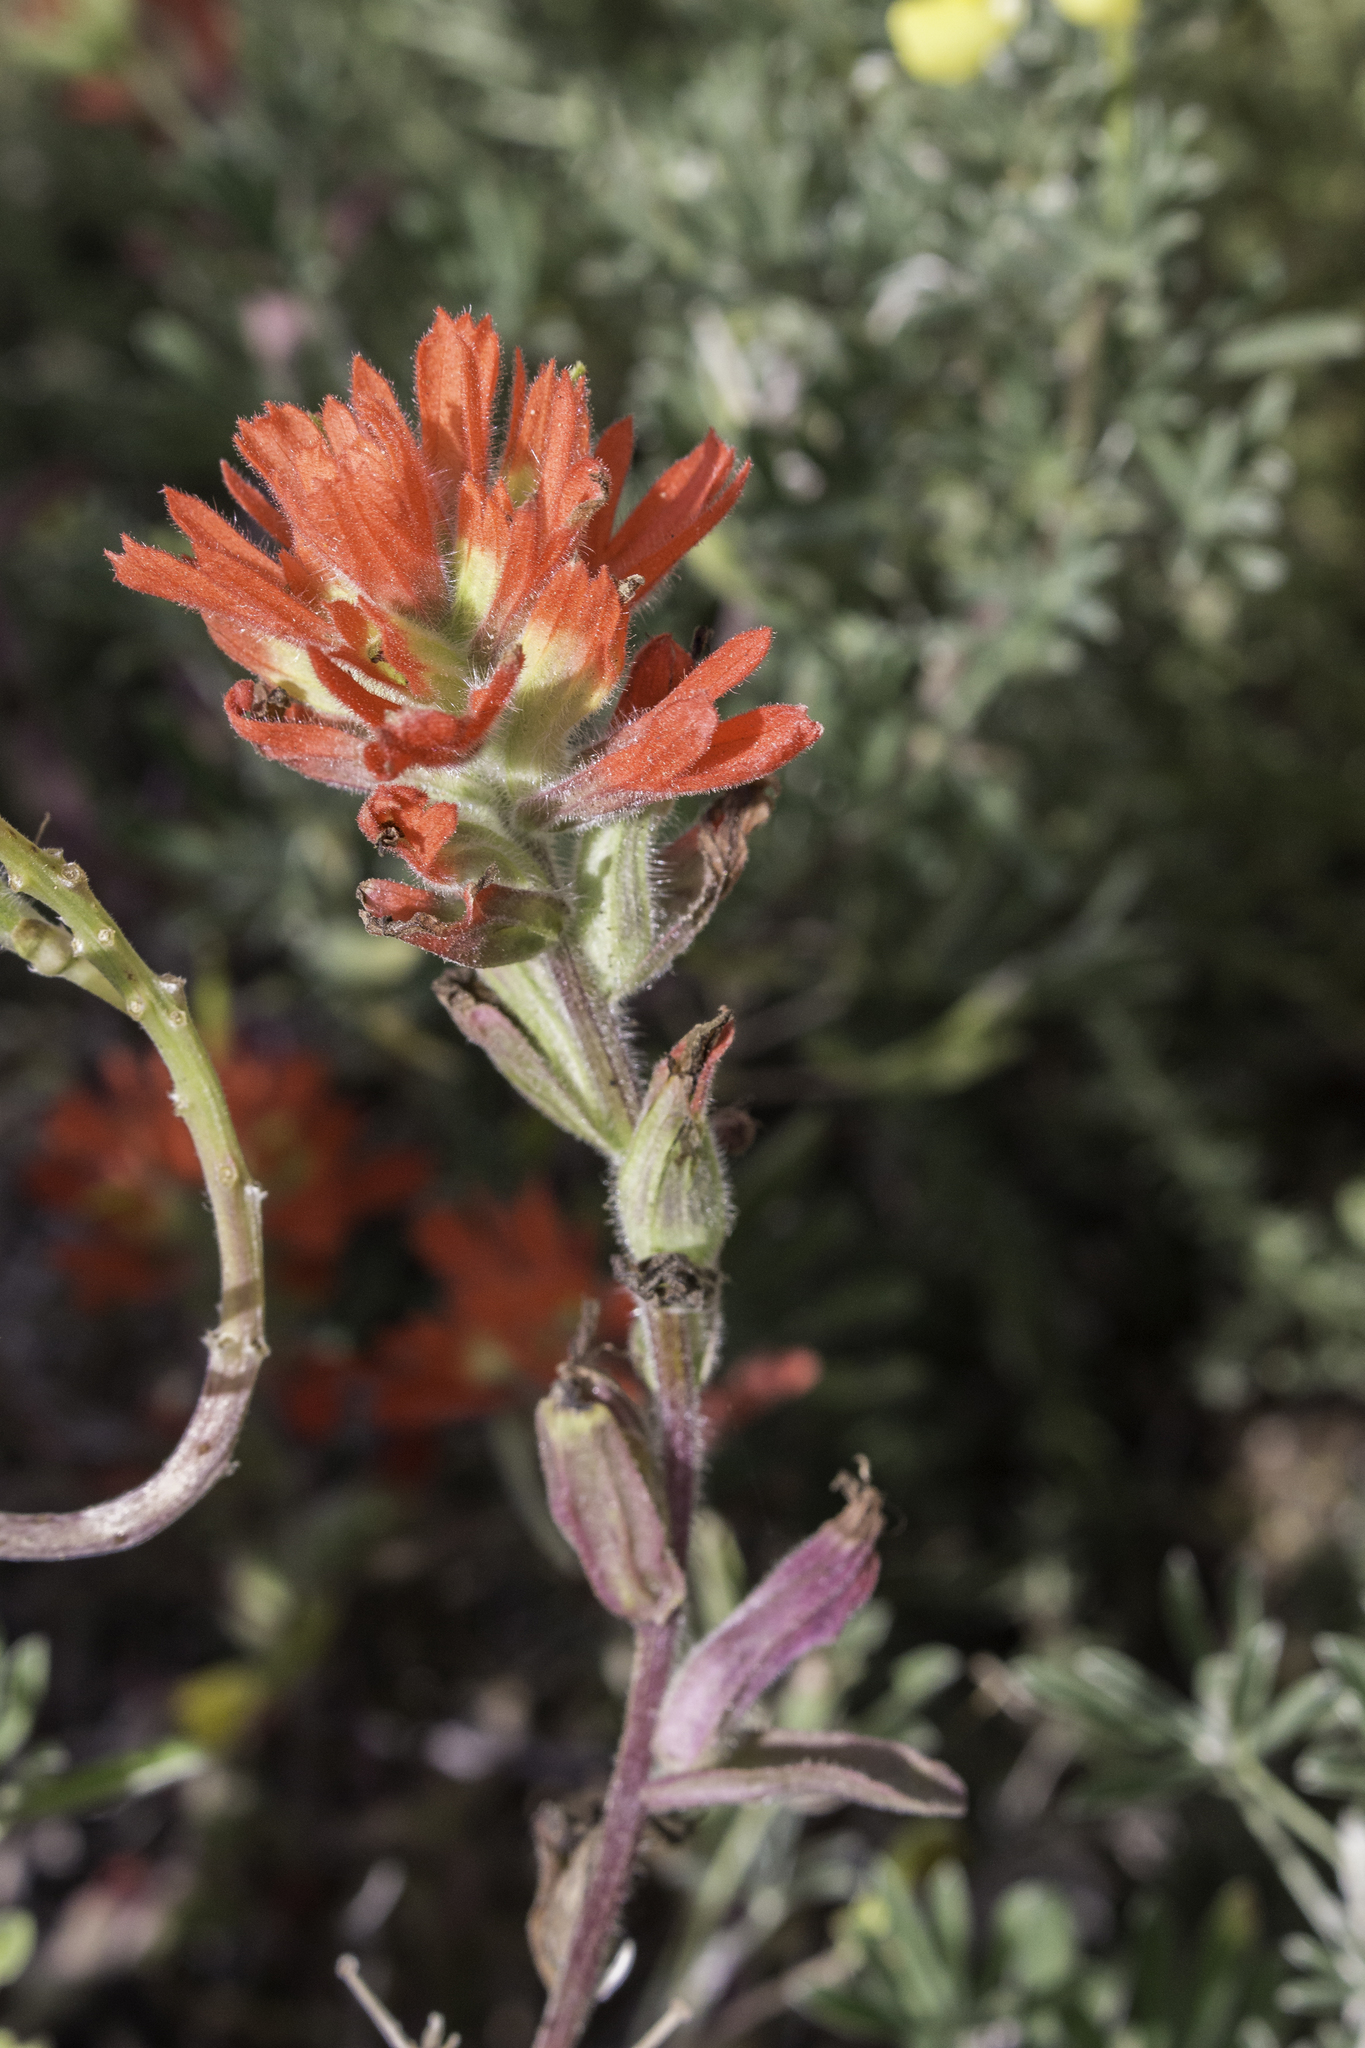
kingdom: Plantae
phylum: Tracheophyta
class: Magnoliopsida
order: Lamiales
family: Orobanchaceae
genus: Castilleja
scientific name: Castilleja affinis
